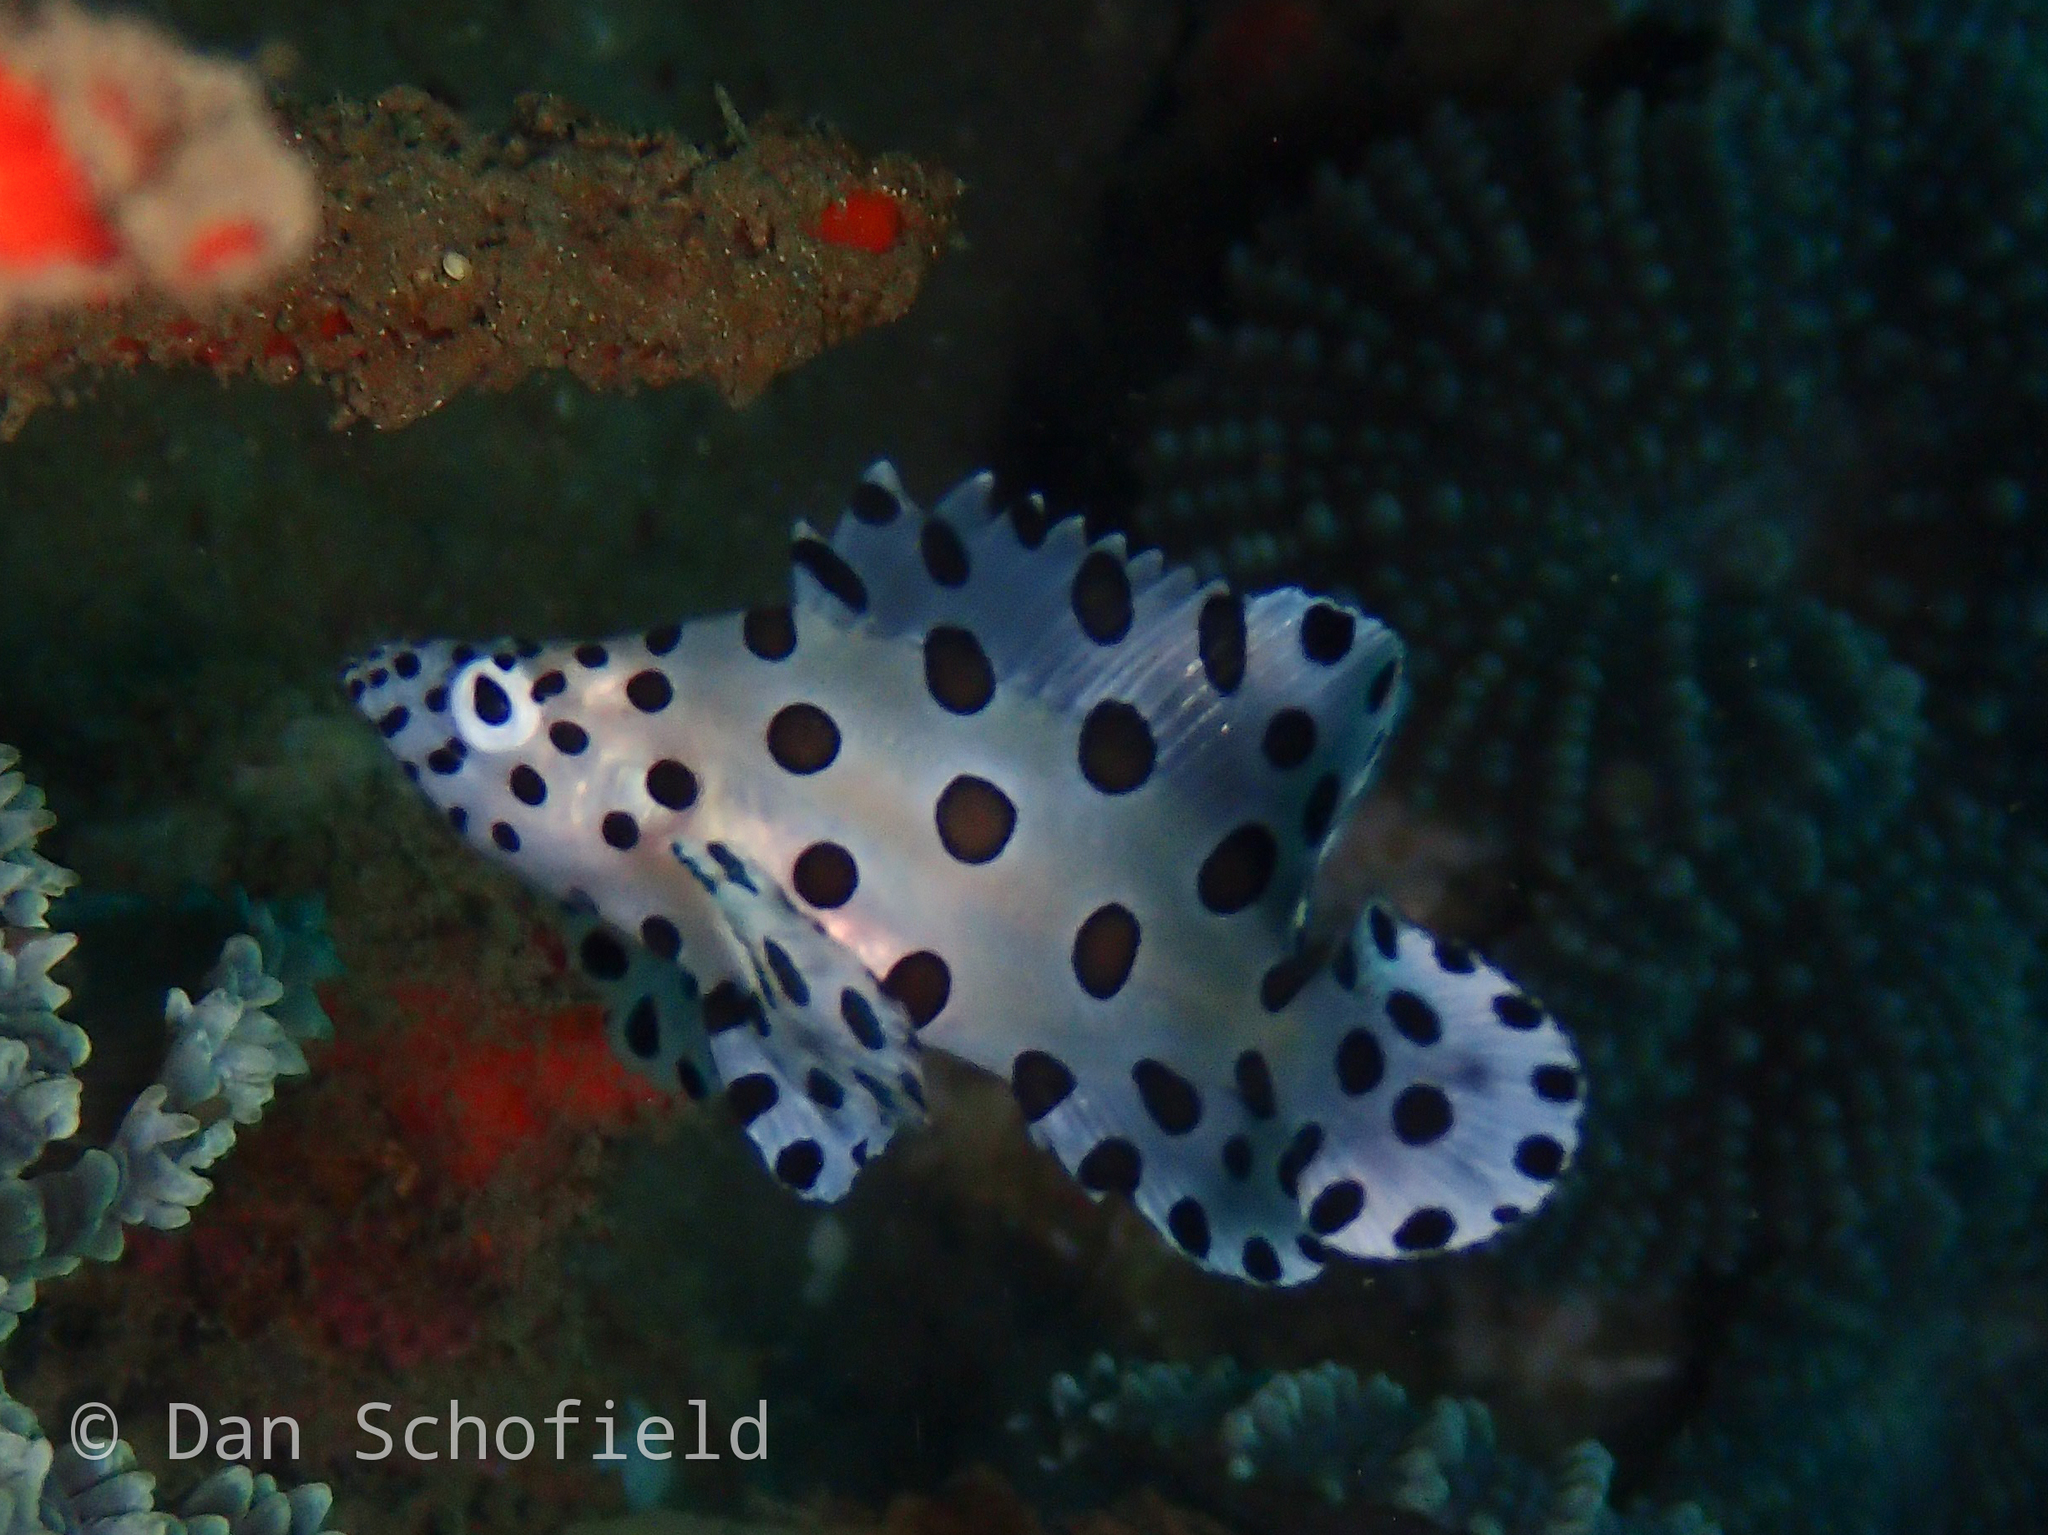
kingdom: Animalia
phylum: Chordata
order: Perciformes
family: Serranidae
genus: Cromileptes
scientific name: Cromileptes altivelis
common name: Humpback grouper
